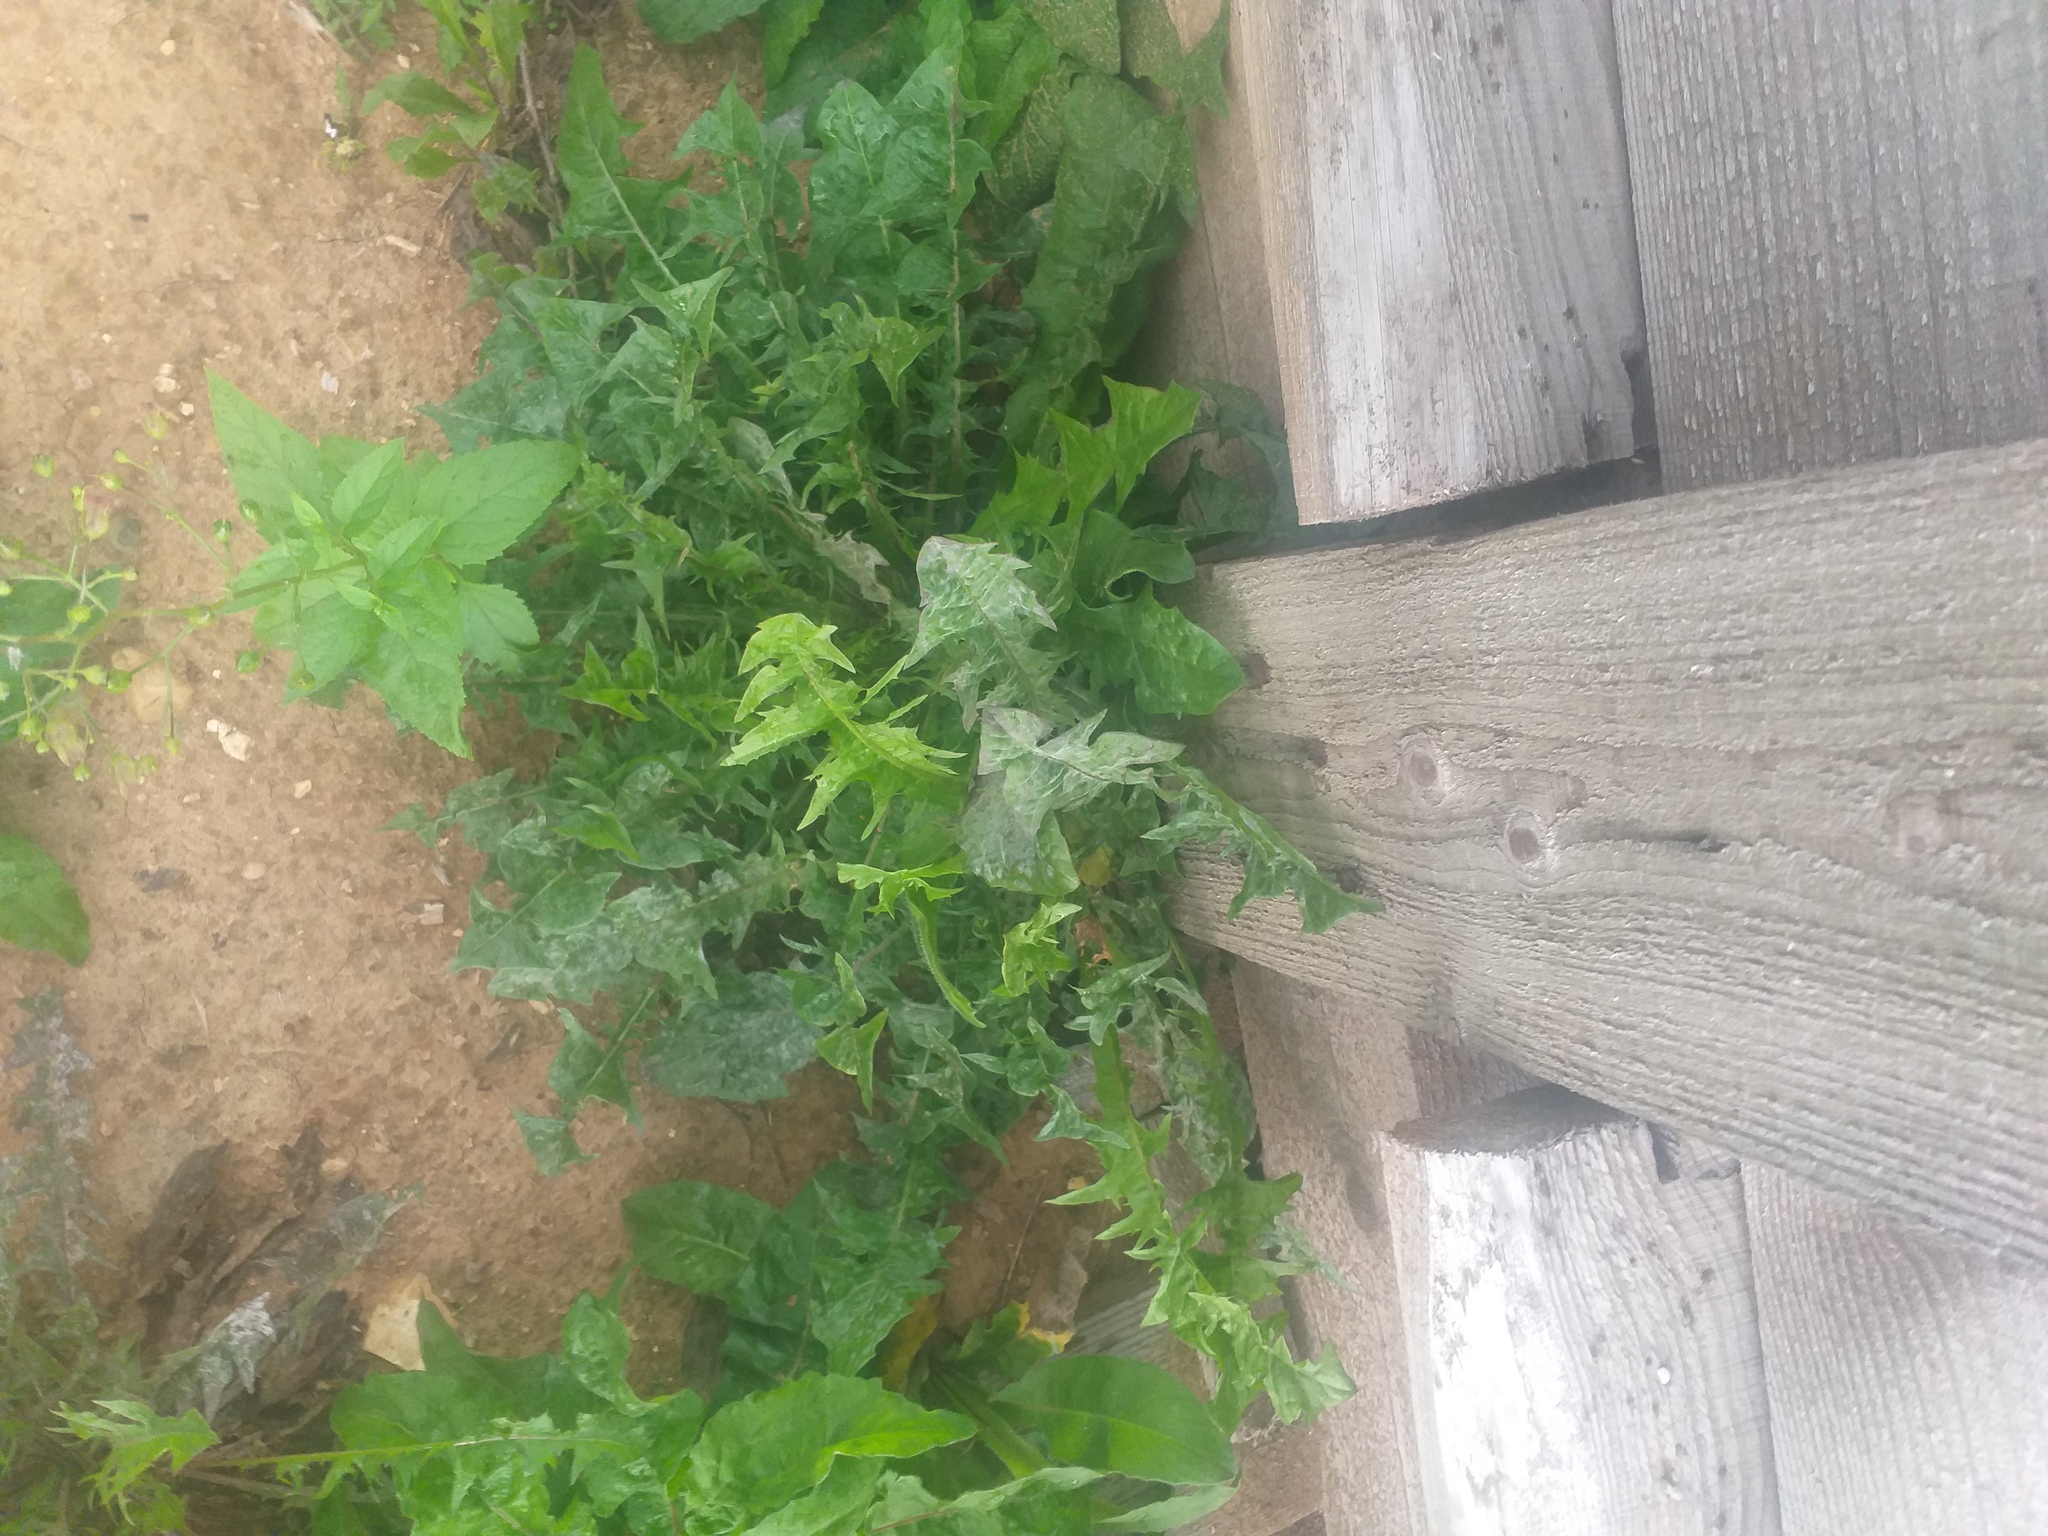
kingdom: Plantae
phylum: Tracheophyta
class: Magnoliopsida
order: Asterales
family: Asteraceae
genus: Taraxacum
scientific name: Taraxacum officinale
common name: Common dandelion
